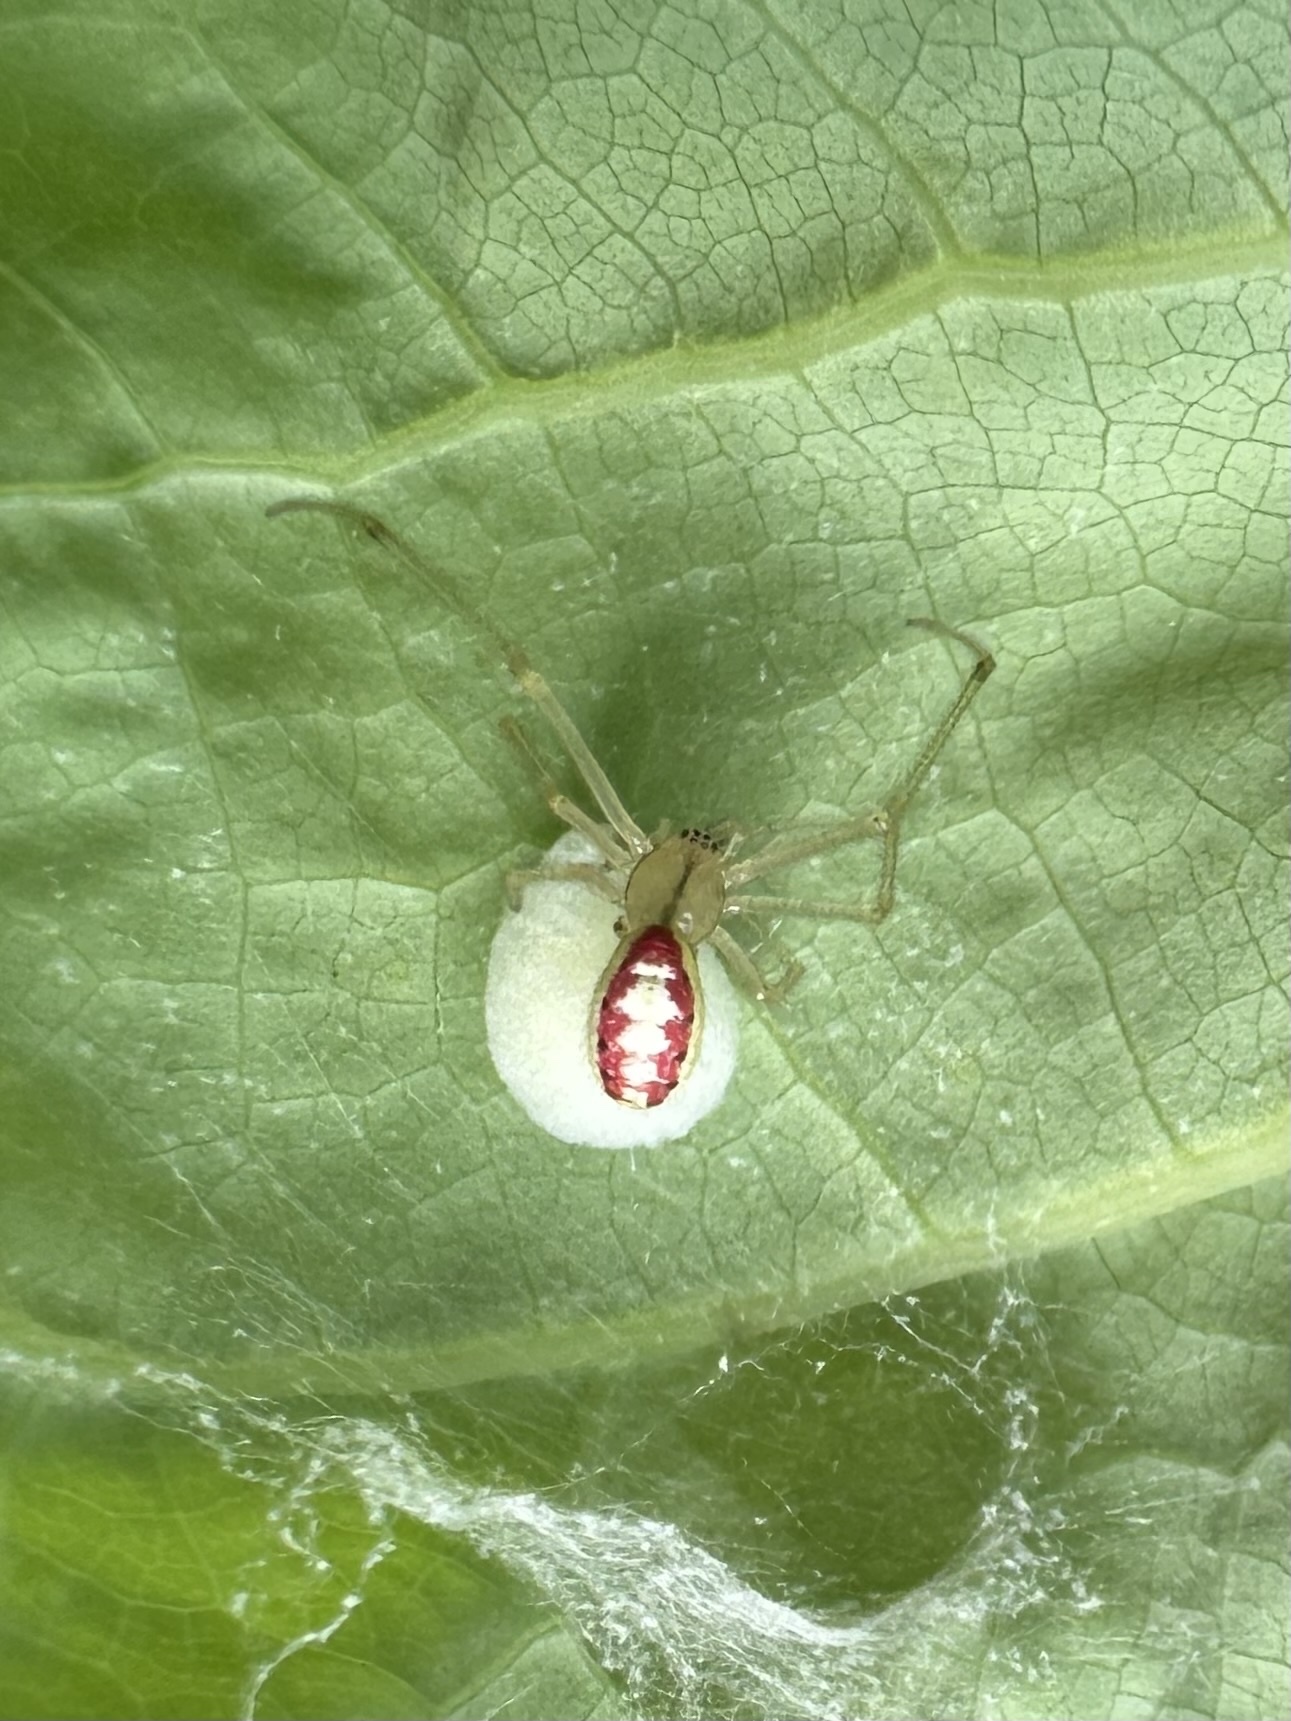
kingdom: Animalia
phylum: Arthropoda
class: Arachnida
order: Araneae
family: Theridiidae
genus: Enoplognatha
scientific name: Enoplognatha ovata
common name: Common candy-striped spider
